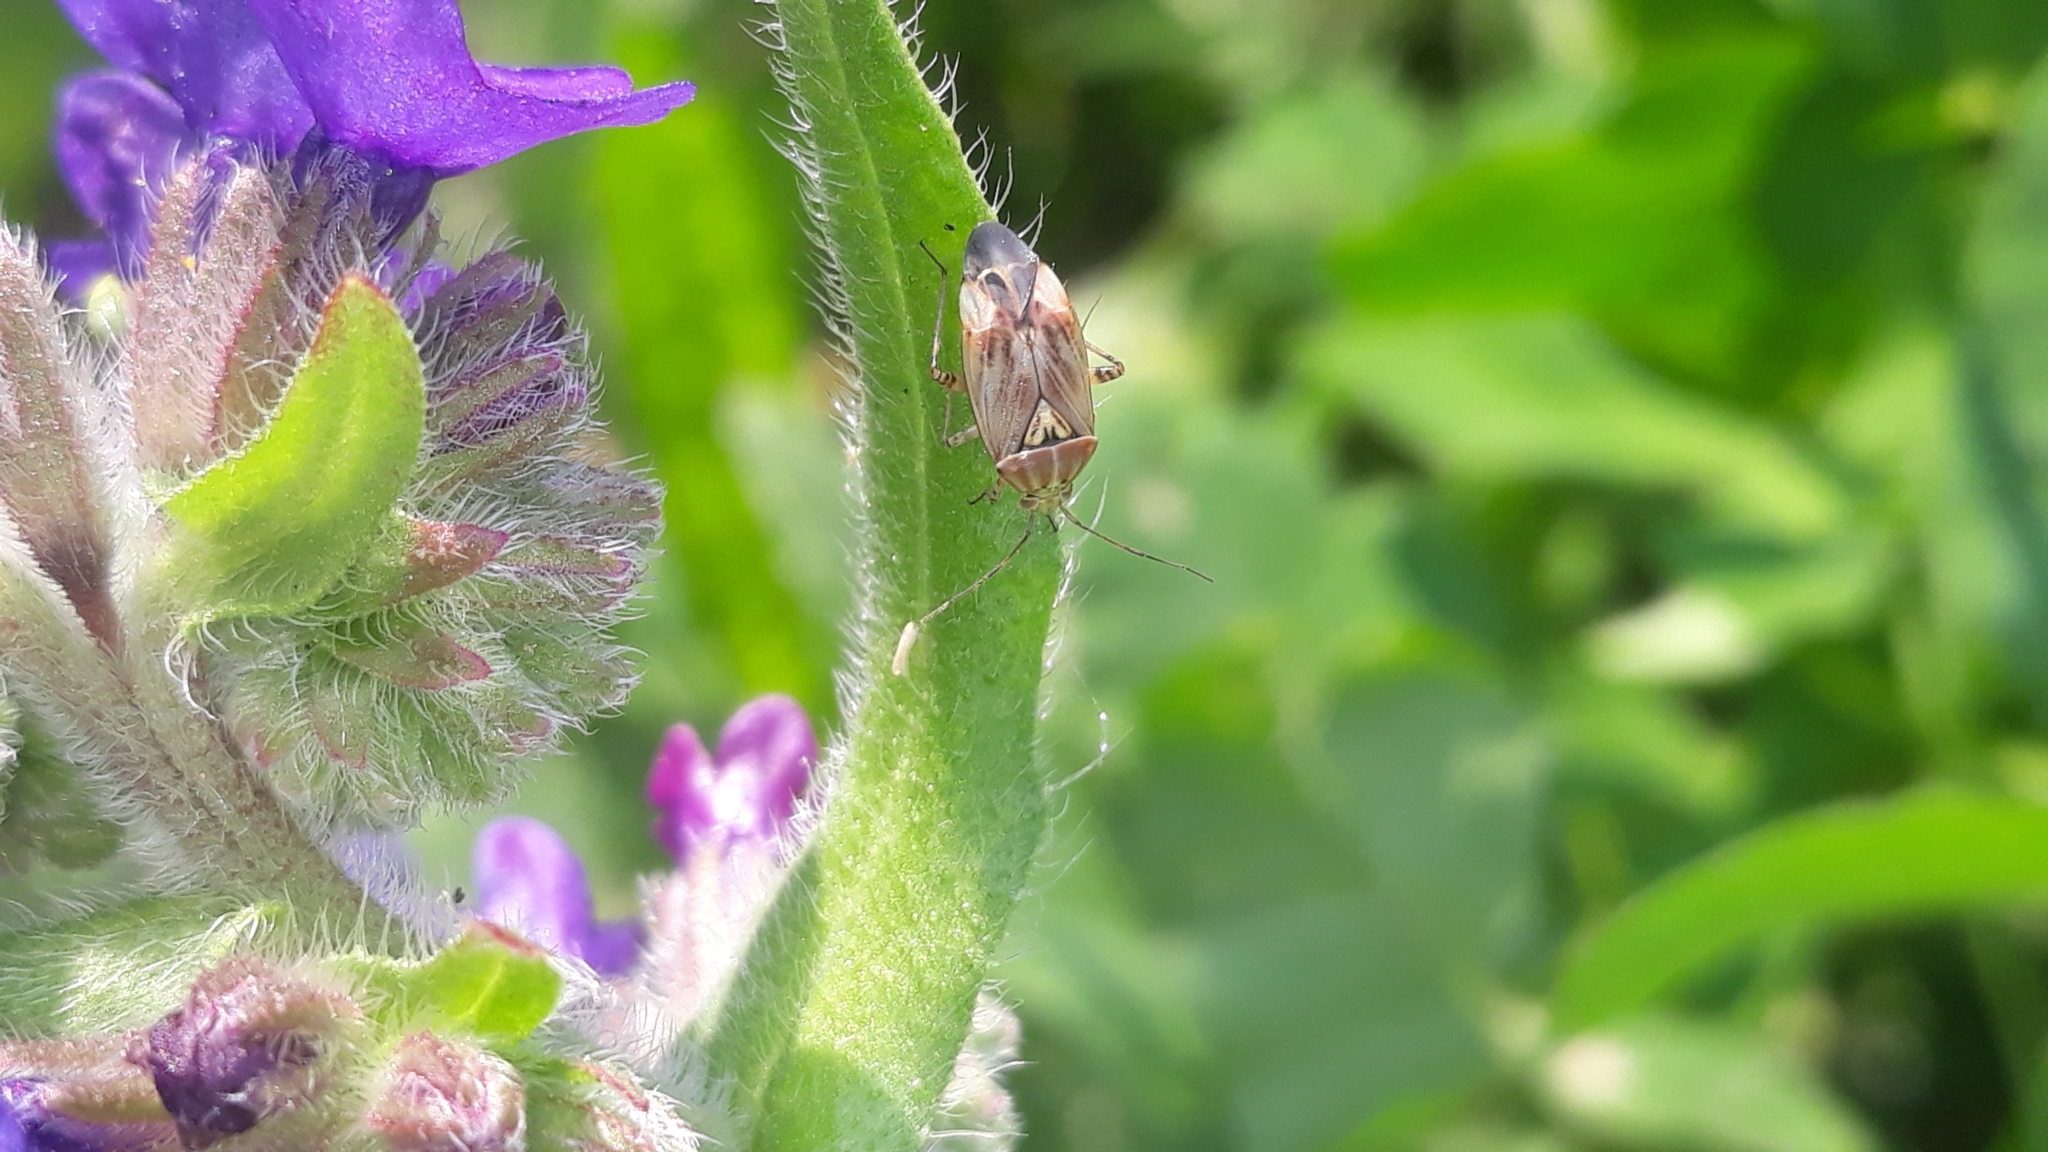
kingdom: Animalia
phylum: Arthropoda
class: Insecta
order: Hemiptera
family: Miridae
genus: Lygus
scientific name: Lygus wagneri
